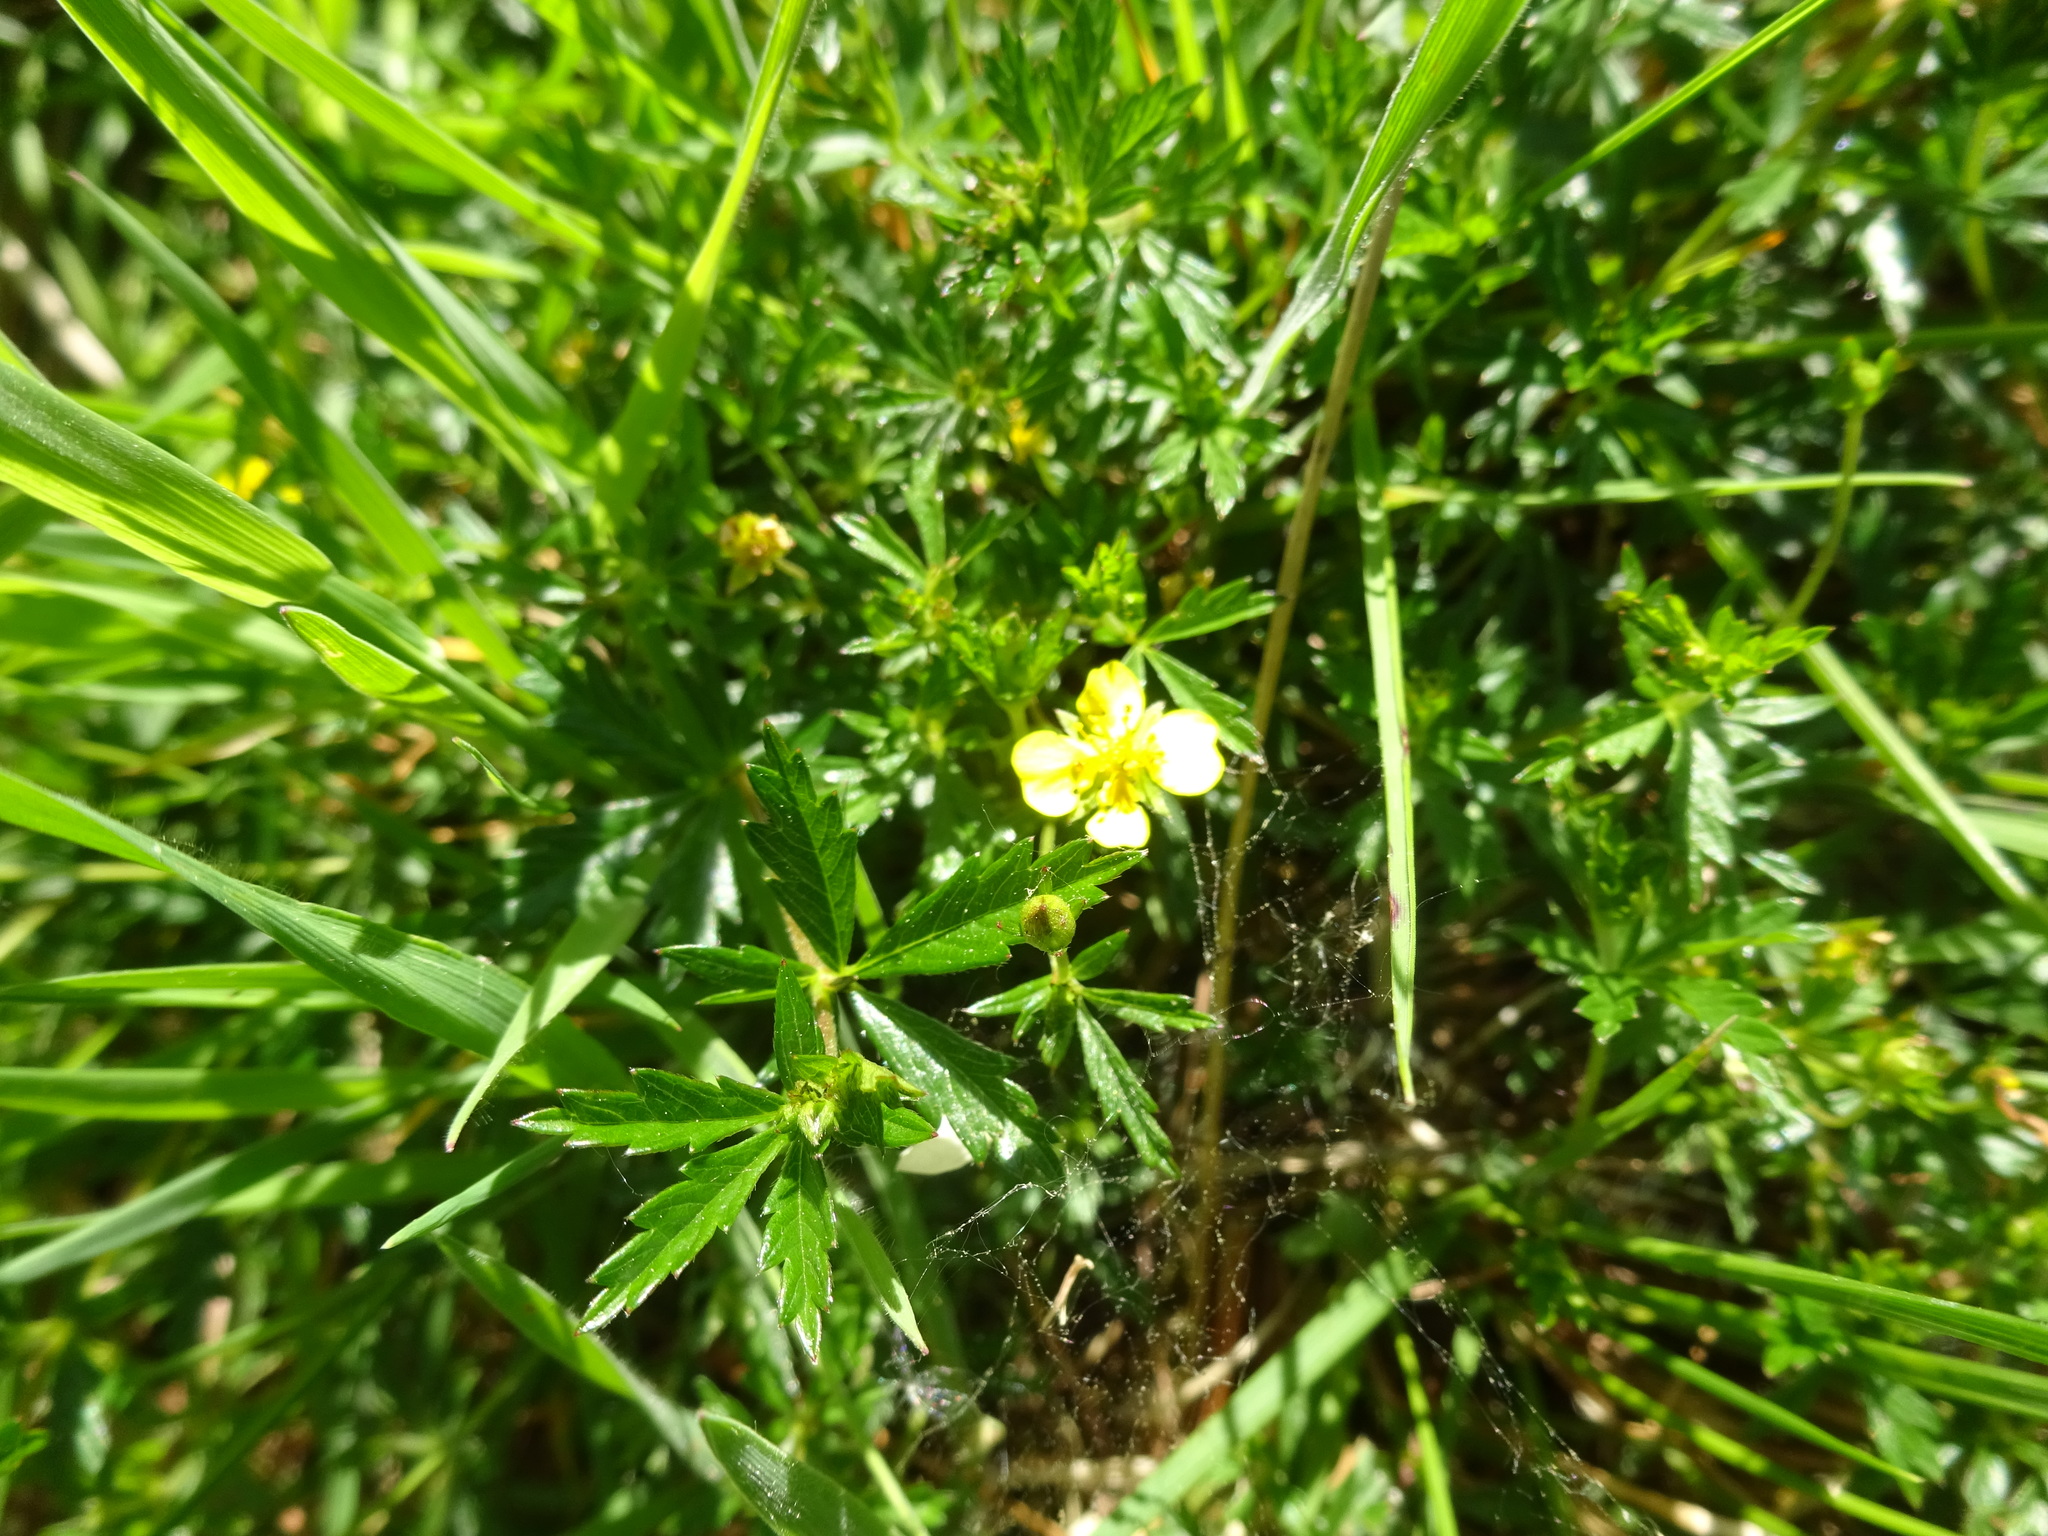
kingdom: Plantae
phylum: Tracheophyta
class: Magnoliopsida
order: Rosales
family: Rosaceae
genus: Potentilla
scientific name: Potentilla erecta
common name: Tormentil
